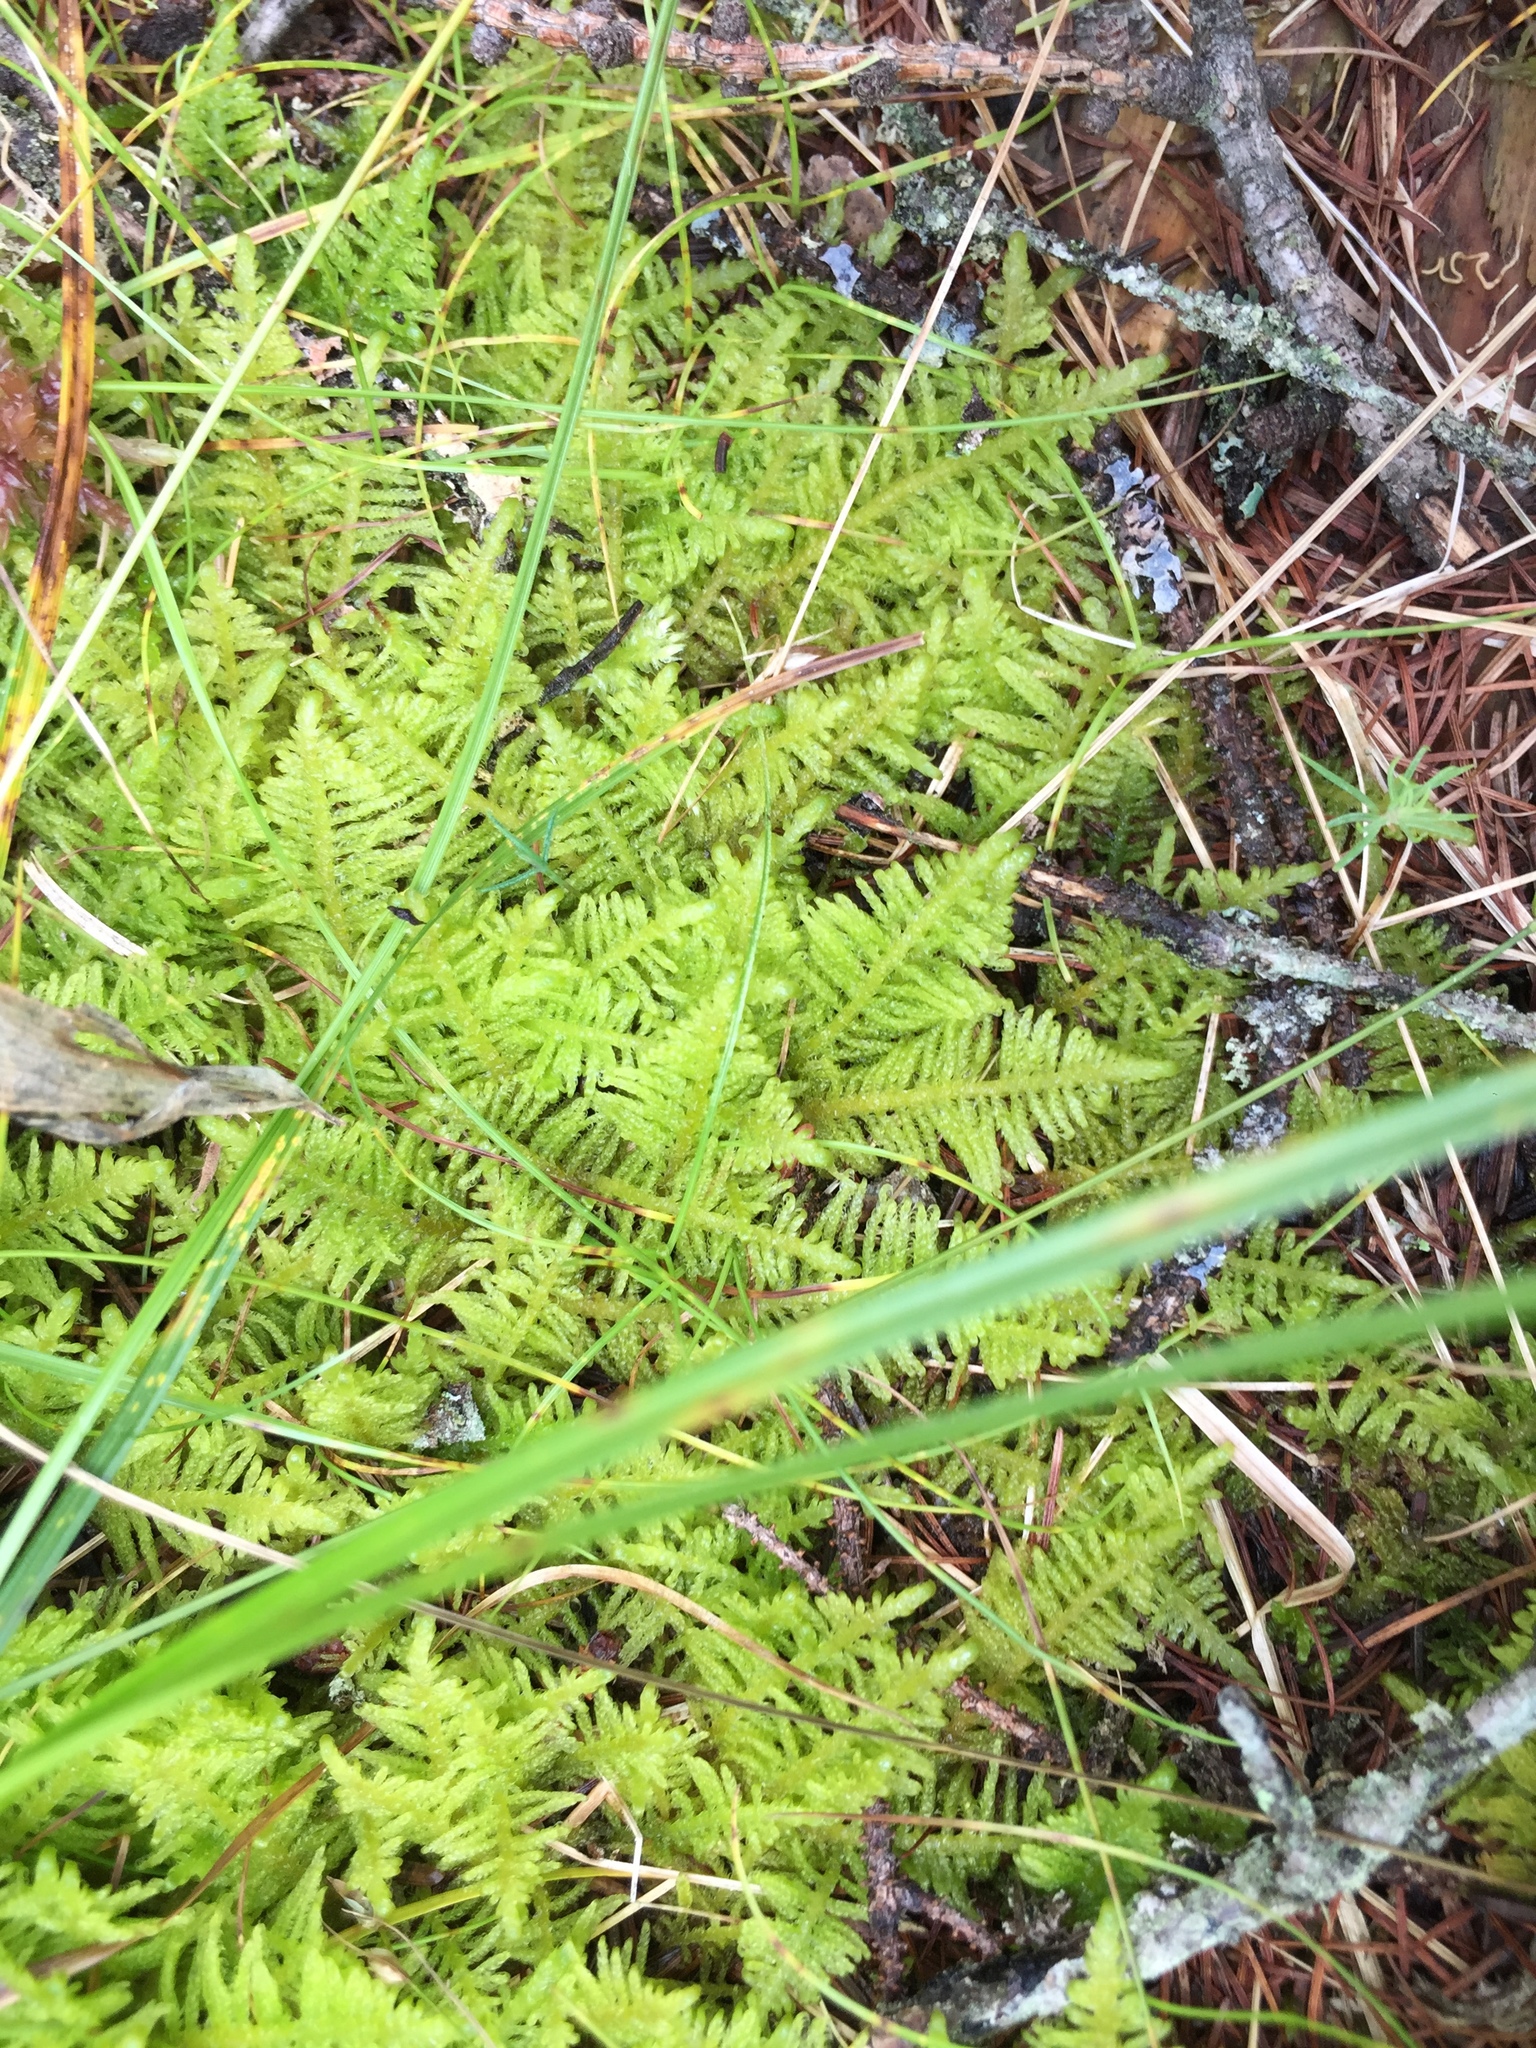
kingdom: Plantae
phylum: Bryophyta
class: Bryopsida
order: Hypnales
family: Pylaisiaceae
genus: Ptilium
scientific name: Ptilium crista-castrensis
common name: Knight's plume moss
